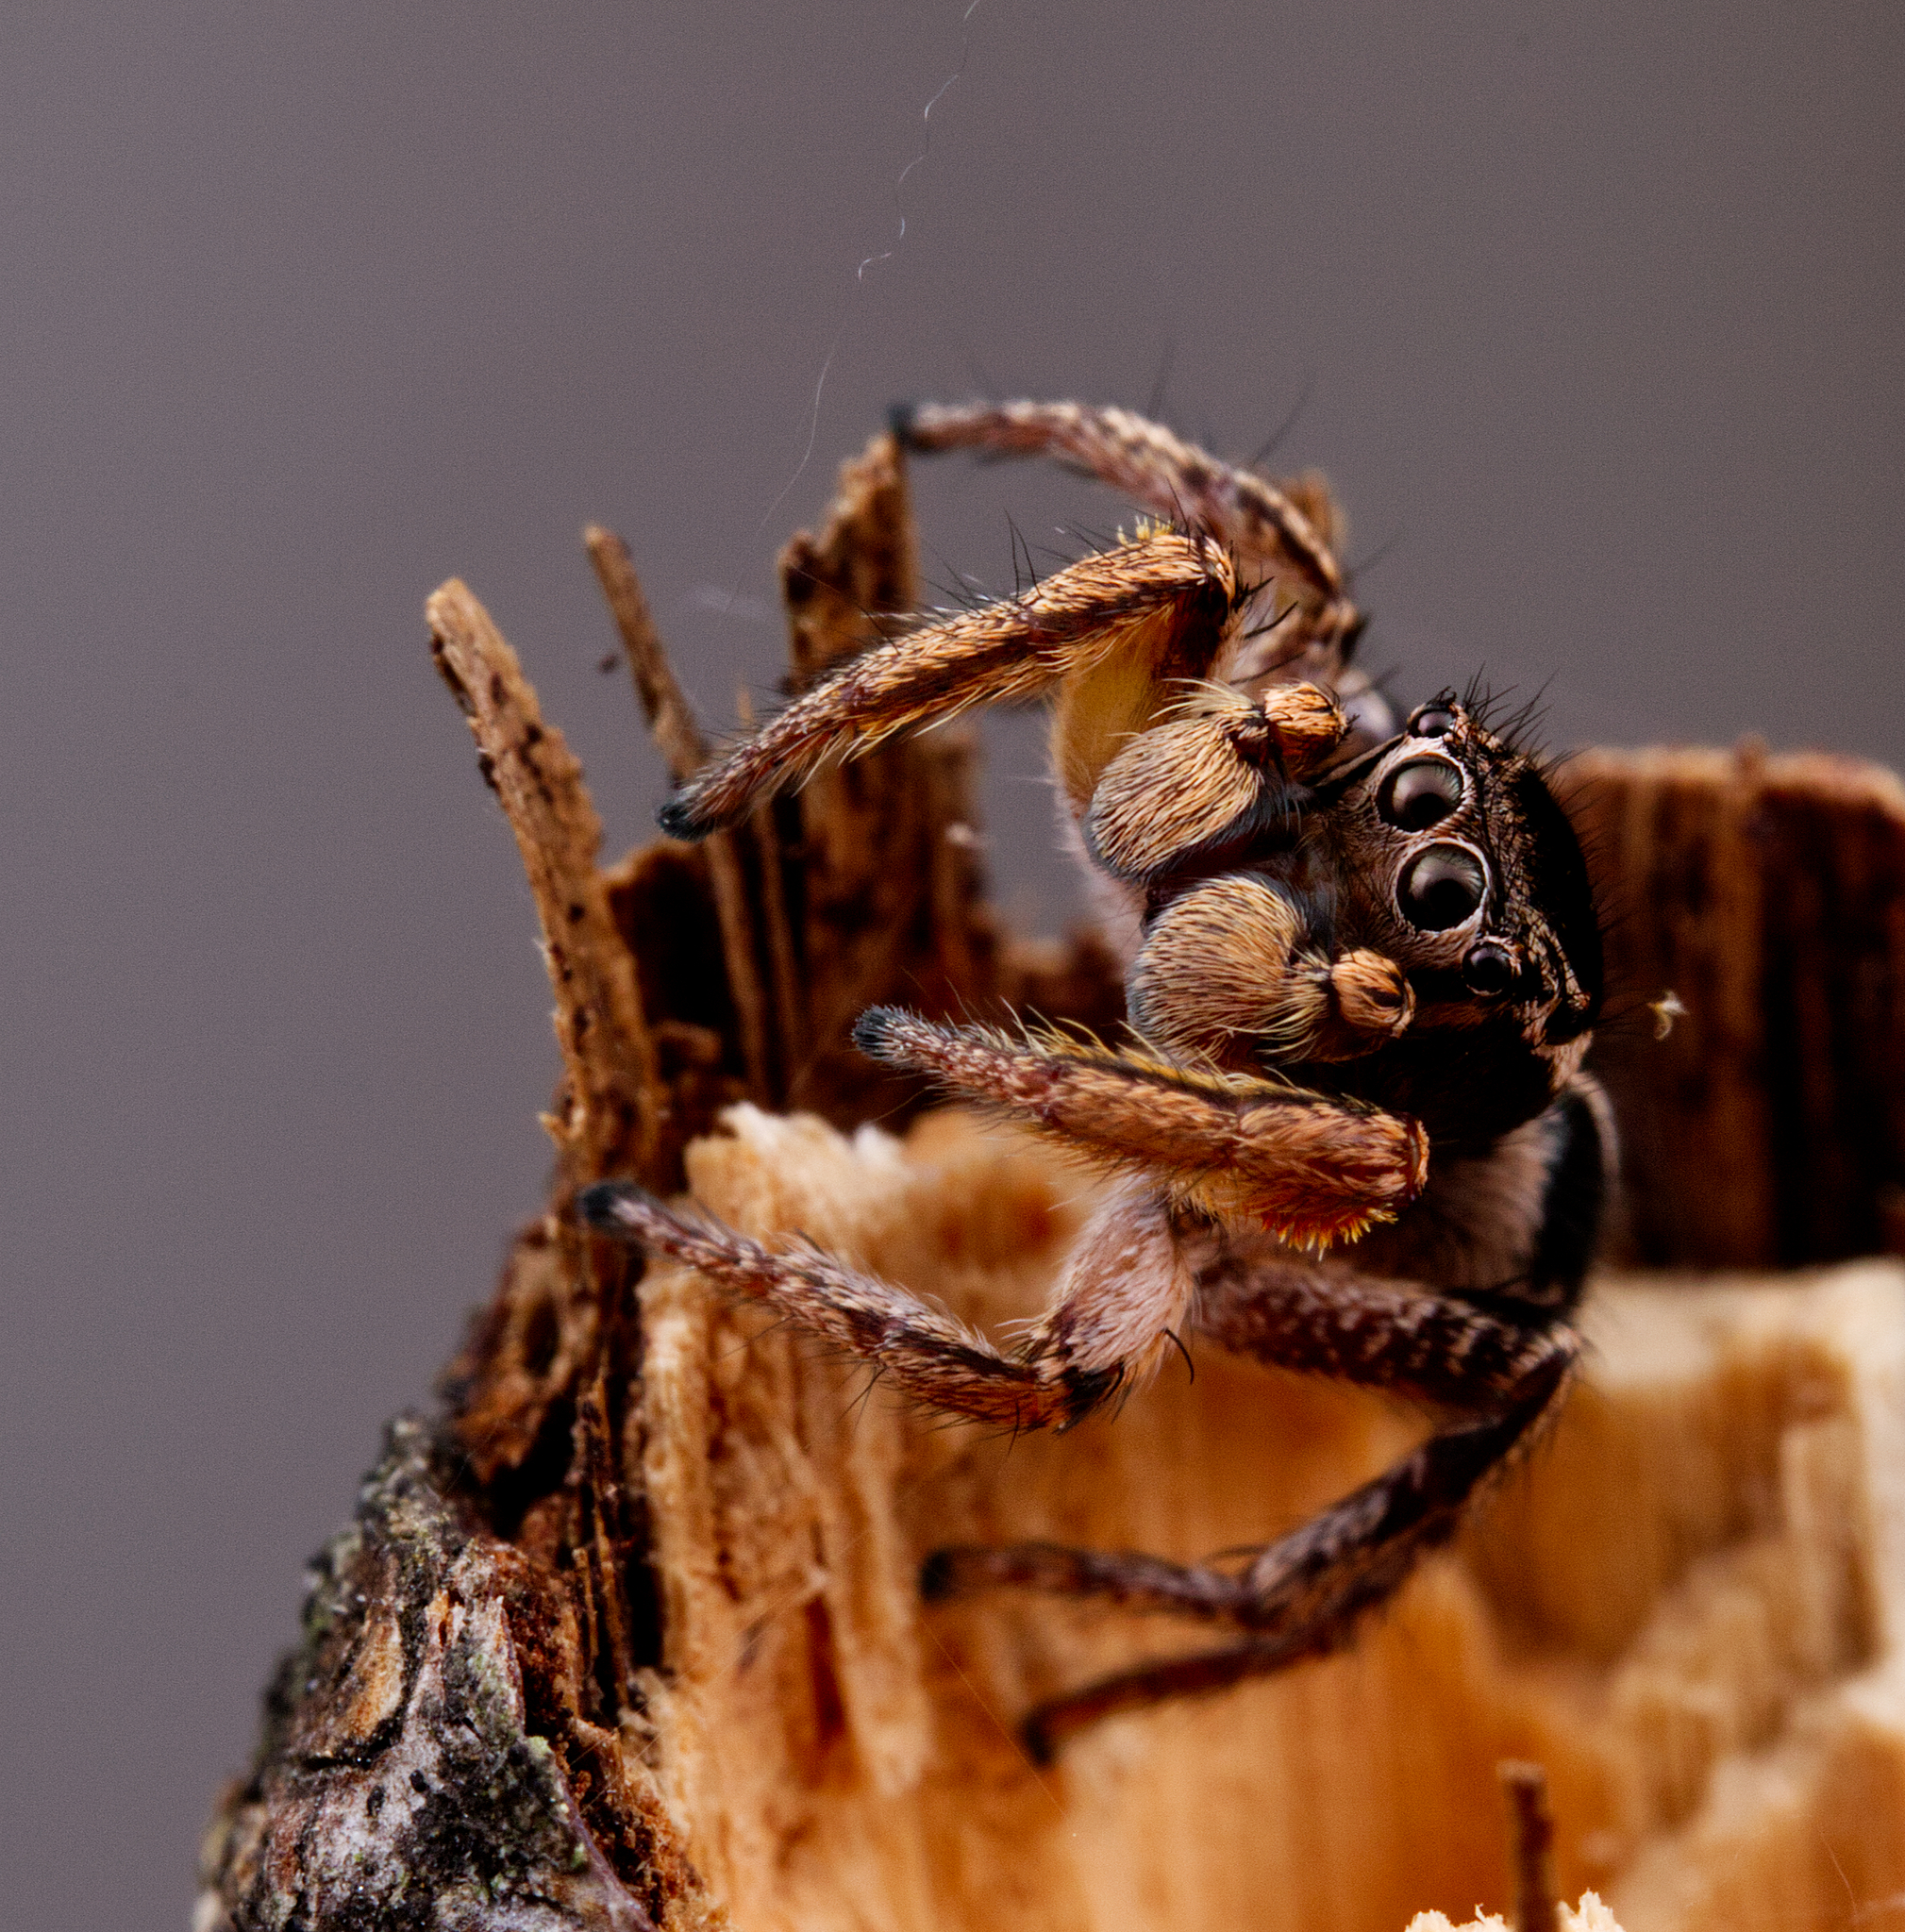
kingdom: Animalia
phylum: Arthropoda
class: Arachnida
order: Araneae
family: Salticidae
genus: Habronattus
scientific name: Habronattus orbus
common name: Orbus paradise spider
